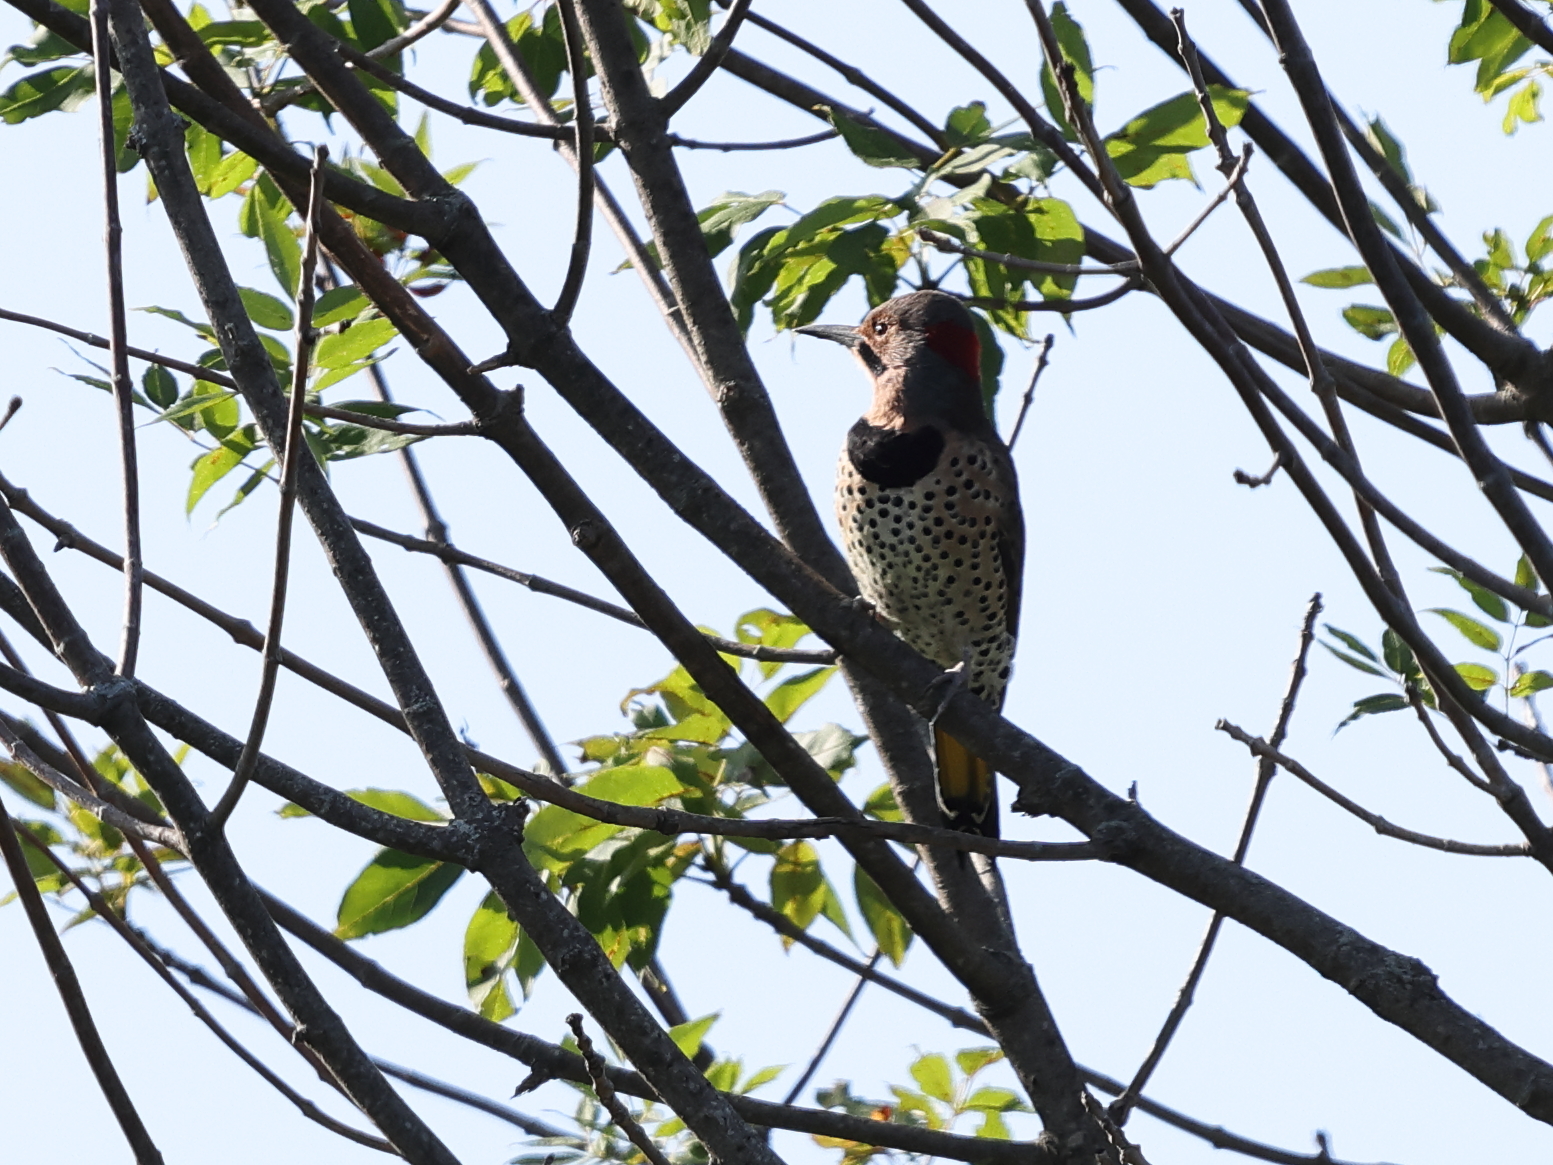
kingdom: Animalia
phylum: Chordata
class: Aves
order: Piciformes
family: Picidae
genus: Colaptes
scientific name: Colaptes auratus
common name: Northern flicker
